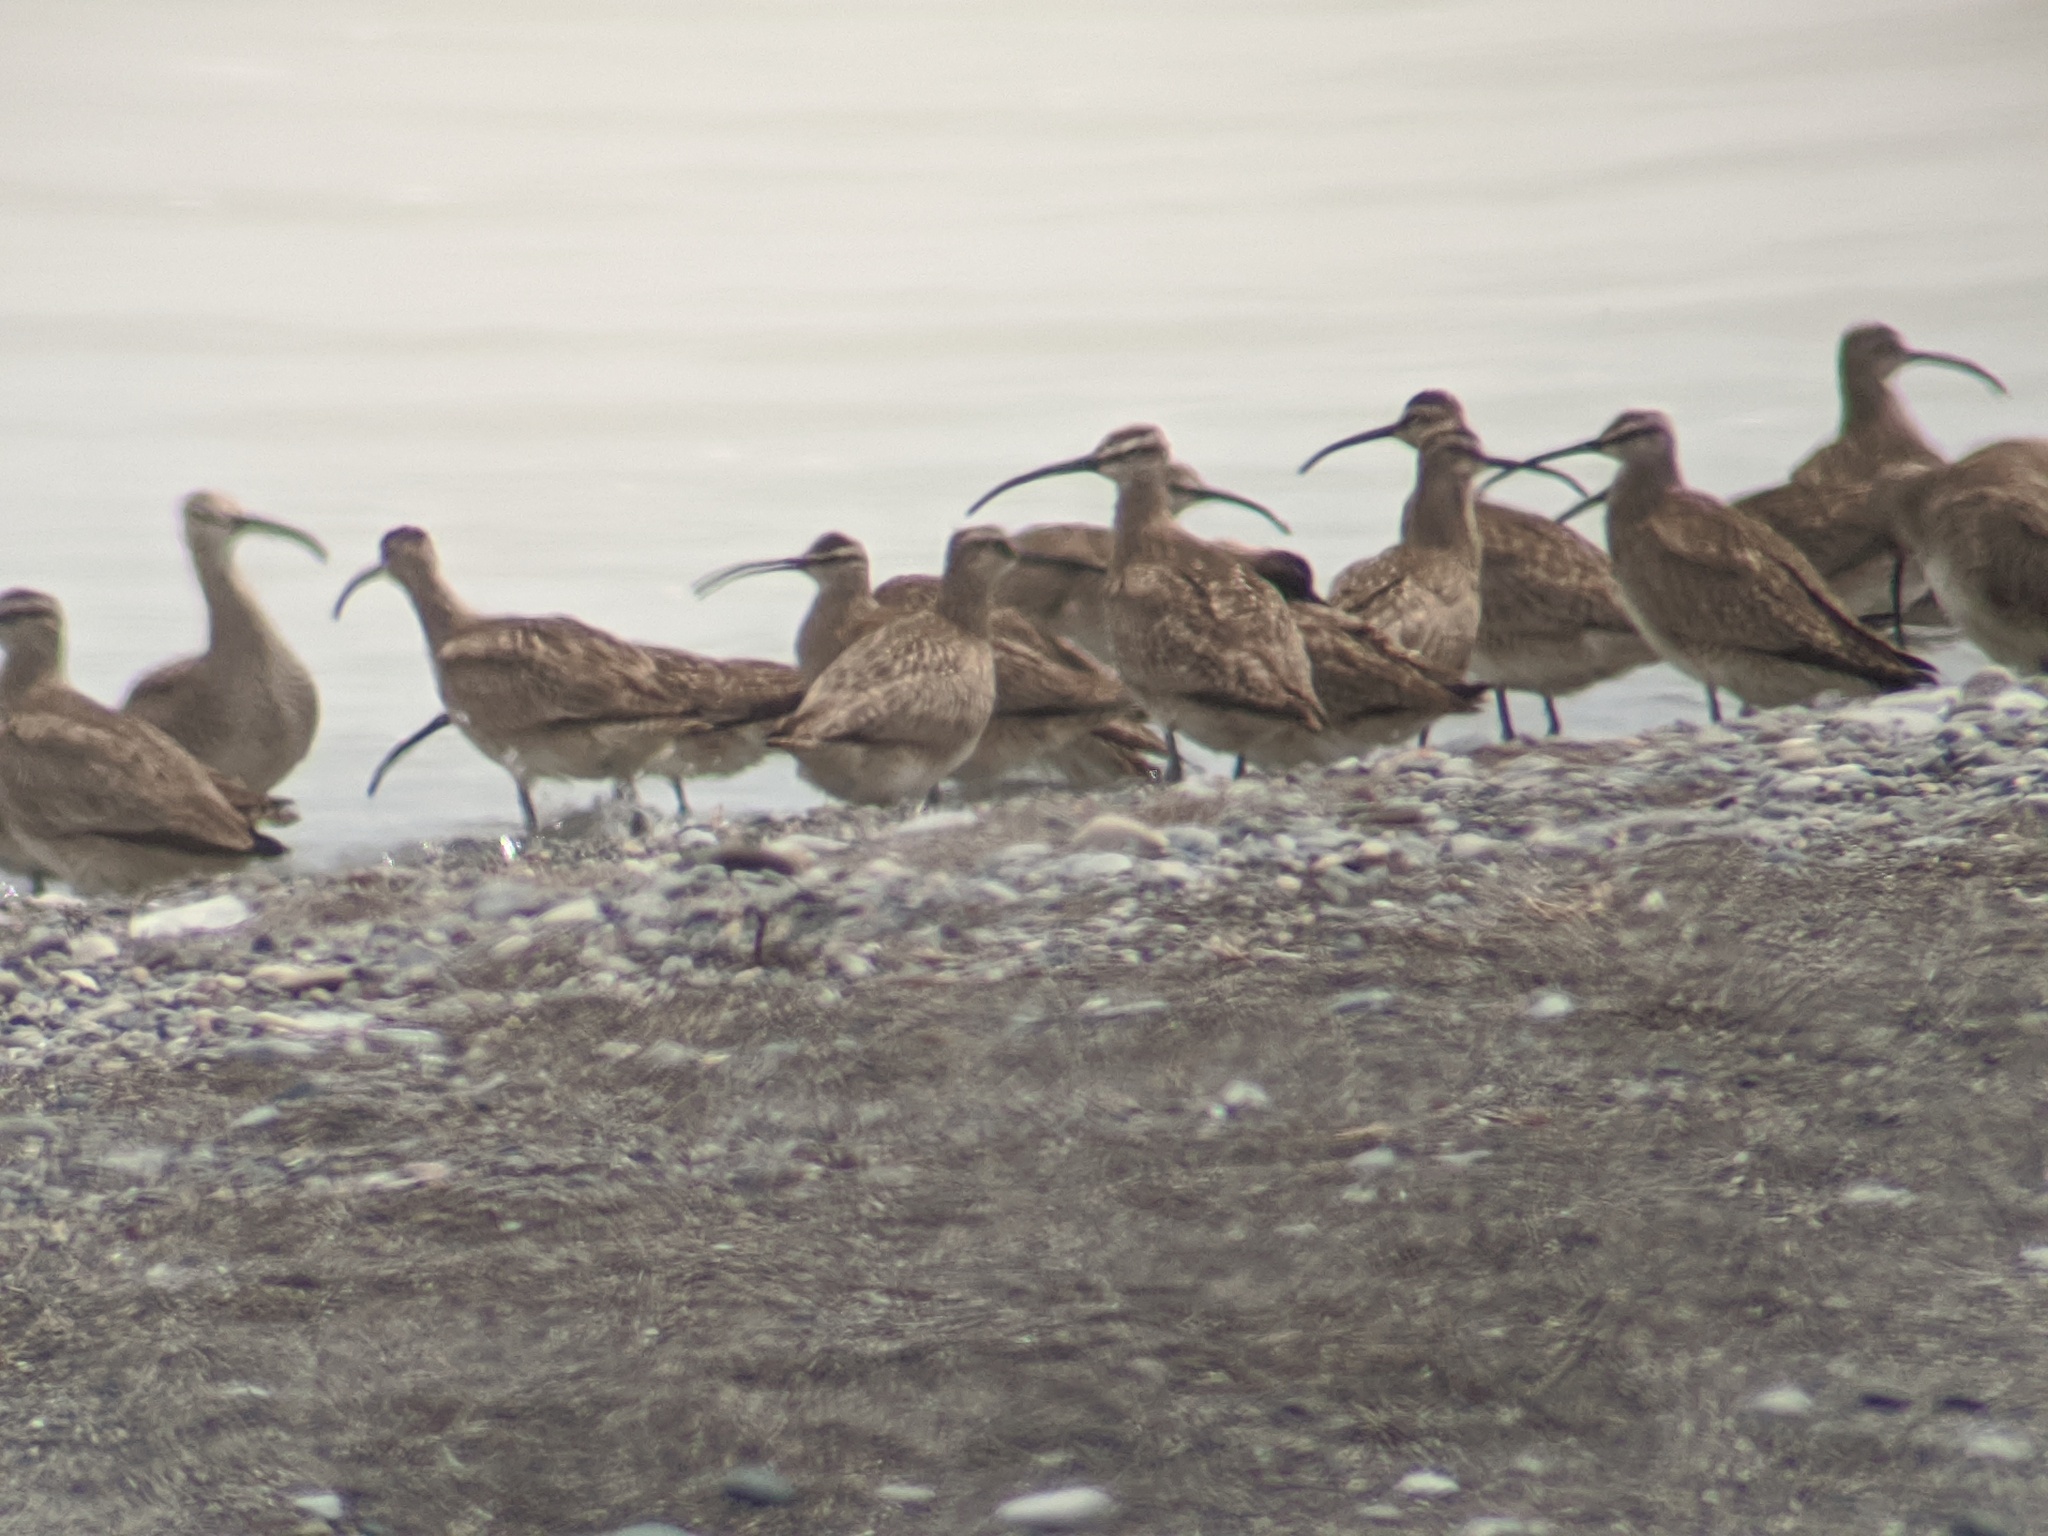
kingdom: Animalia
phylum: Chordata
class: Aves
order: Charadriiformes
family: Scolopacidae
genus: Numenius
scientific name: Numenius phaeopus
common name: Whimbrel
